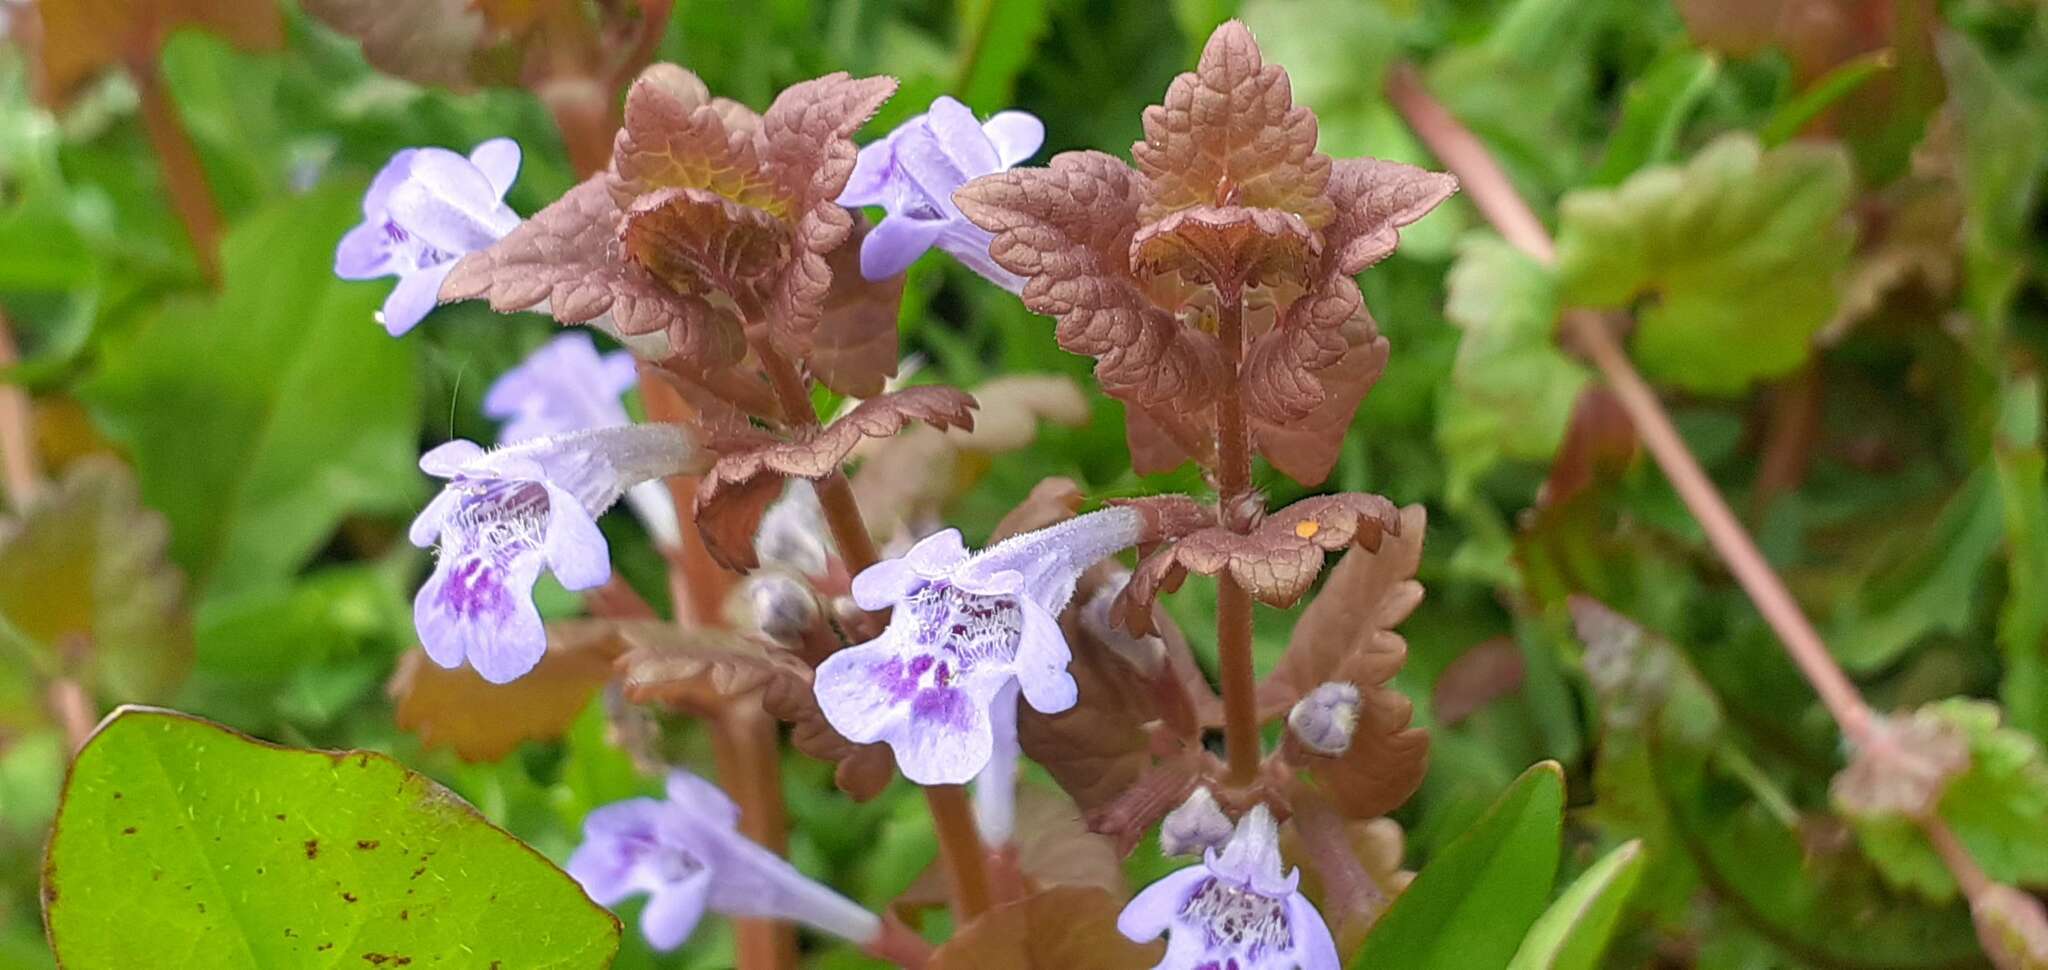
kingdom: Plantae
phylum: Tracheophyta
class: Magnoliopsida
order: Lamiales
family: Lamiaceae
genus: Glechoma
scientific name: Glechoma hederacea
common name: Ground ivy
